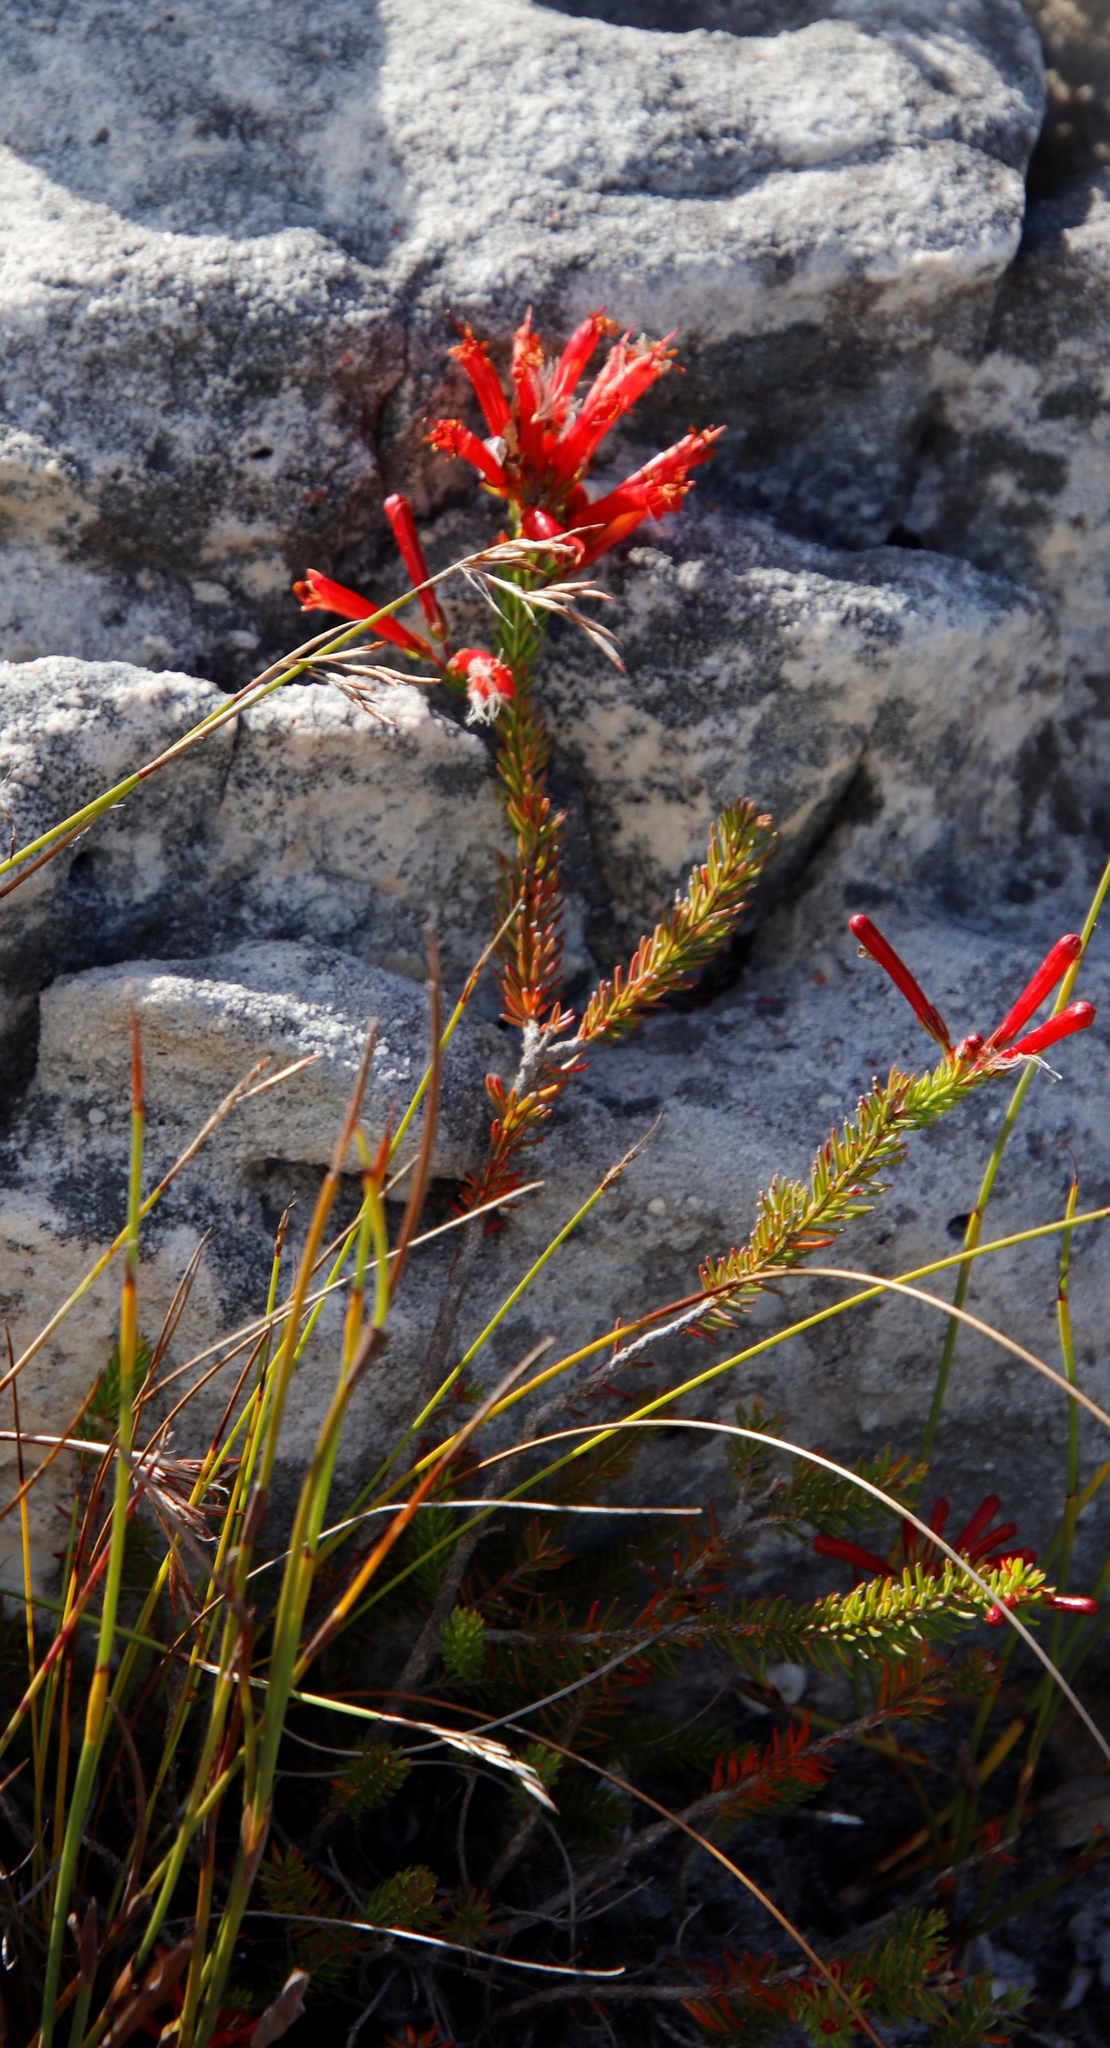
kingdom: Plantae
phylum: Tracheophyta
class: Magnoliopsida
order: Ericales
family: Ericaceae
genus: Erica
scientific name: Erica nevillei
